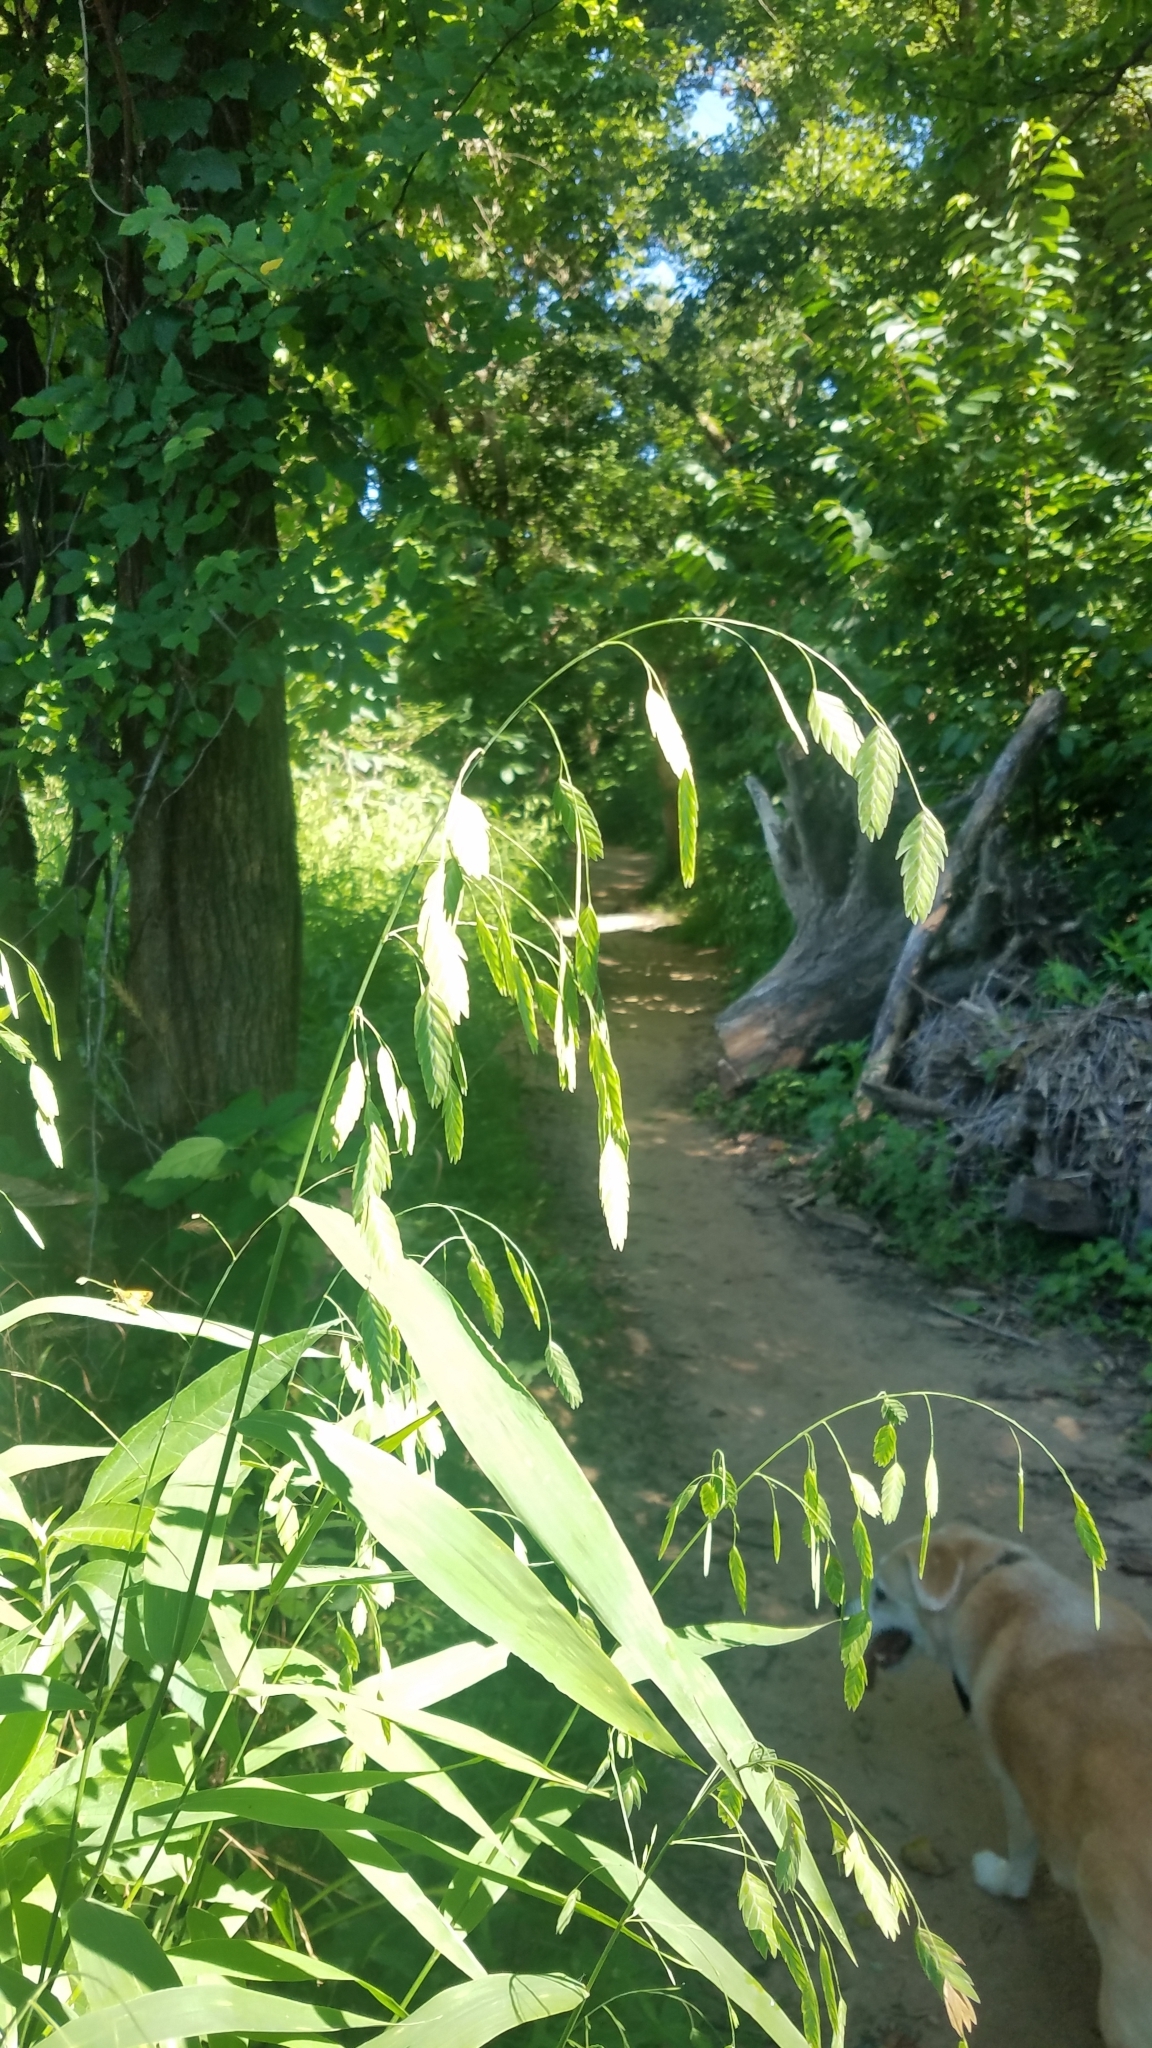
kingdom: Plantae
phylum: Tracheophyta
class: Liliopsida
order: Poales
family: Poaceae
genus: Chasmanthium
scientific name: Chasmanthium latifolium
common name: Broad-leaved chasmanthium
